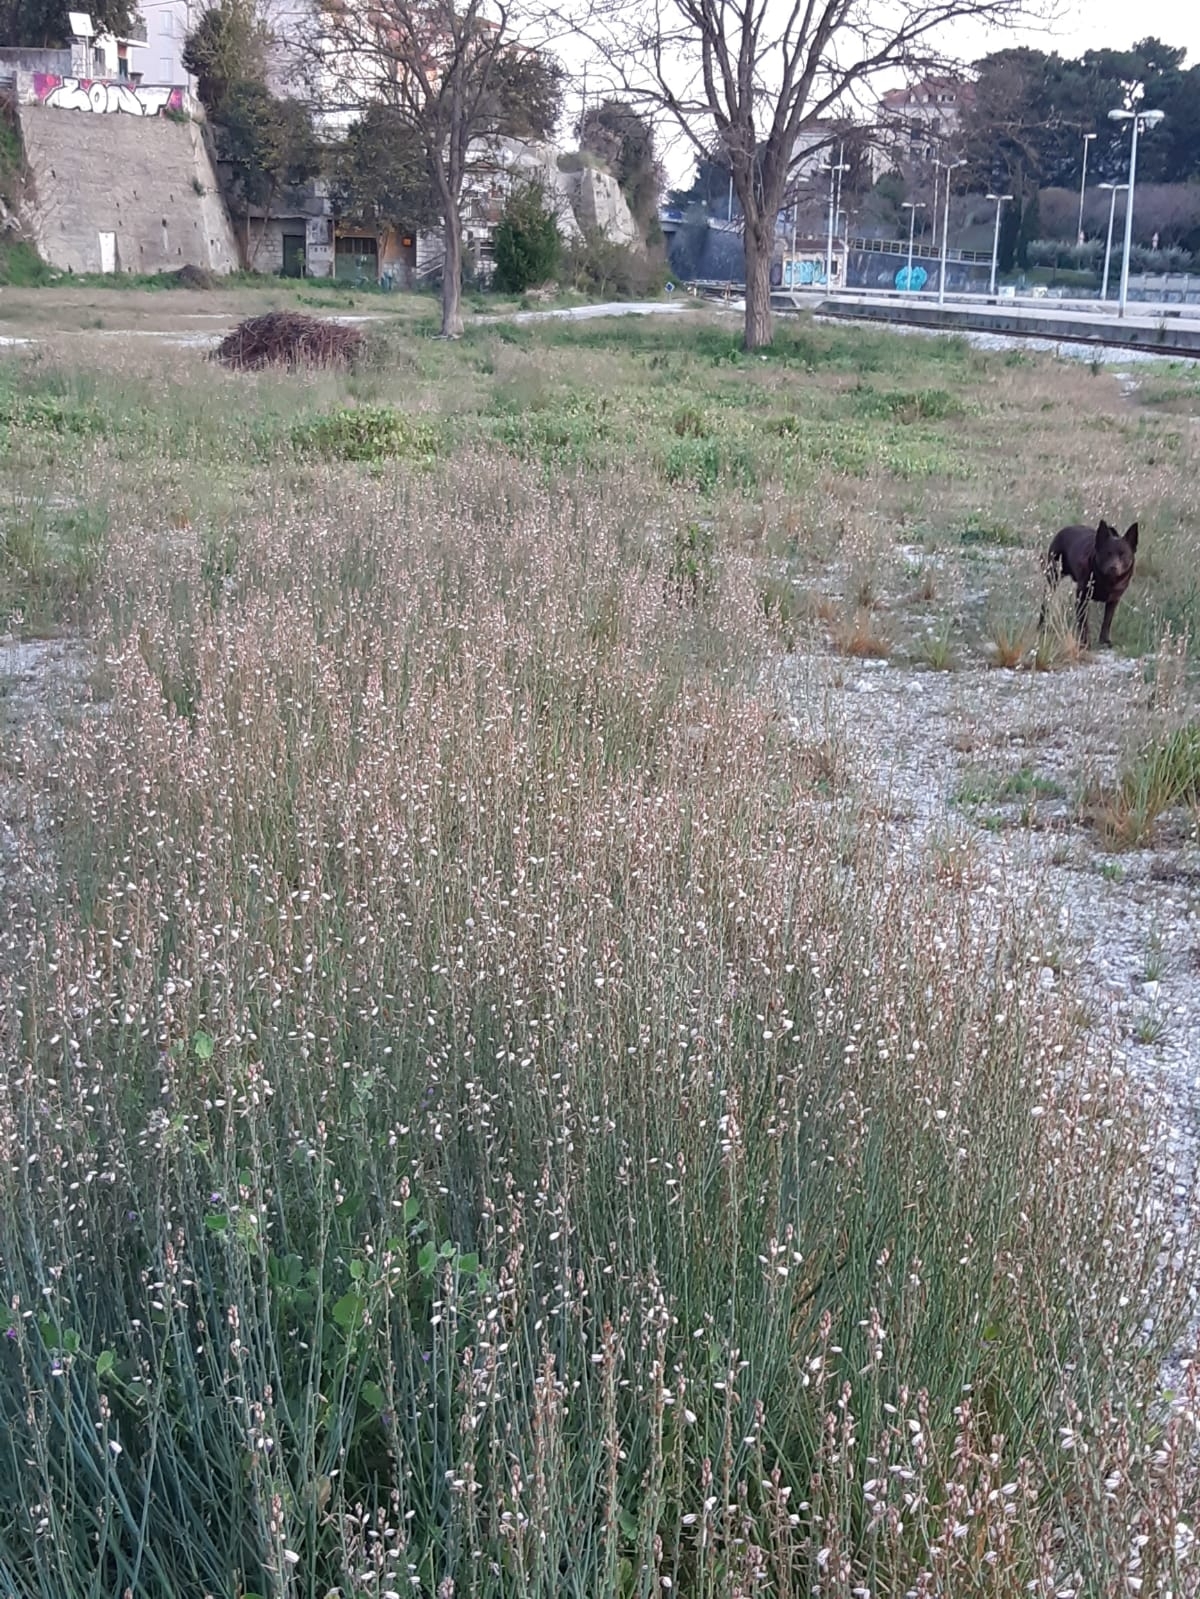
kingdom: Plantae
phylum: Tracheophyta
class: Liliopsida
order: Asparagales
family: Asphodelaceae
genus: Asphodelus
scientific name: Asphodelus fistulosus
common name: Onionweed
